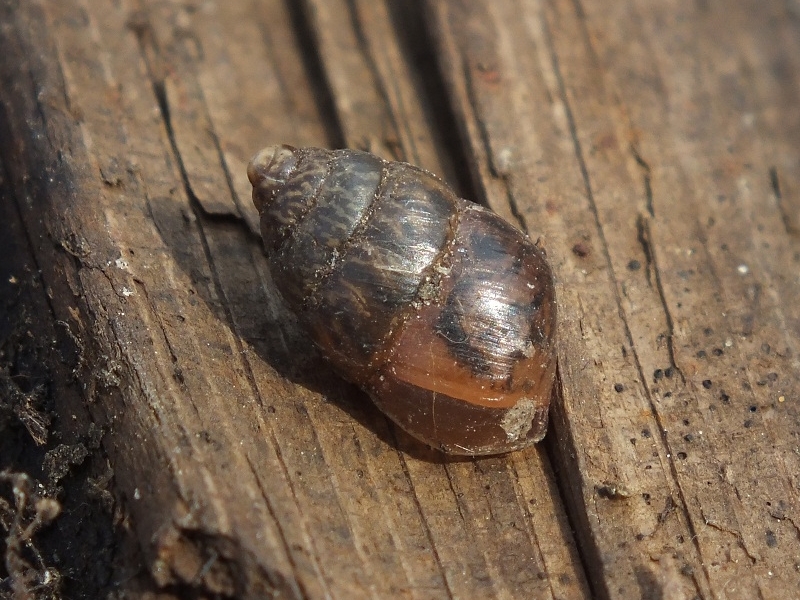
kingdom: Animalia
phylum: Mollusca
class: Gastropoda
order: Stylommatophora
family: Enidae
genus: Chondrula
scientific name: Chondrula tridens
